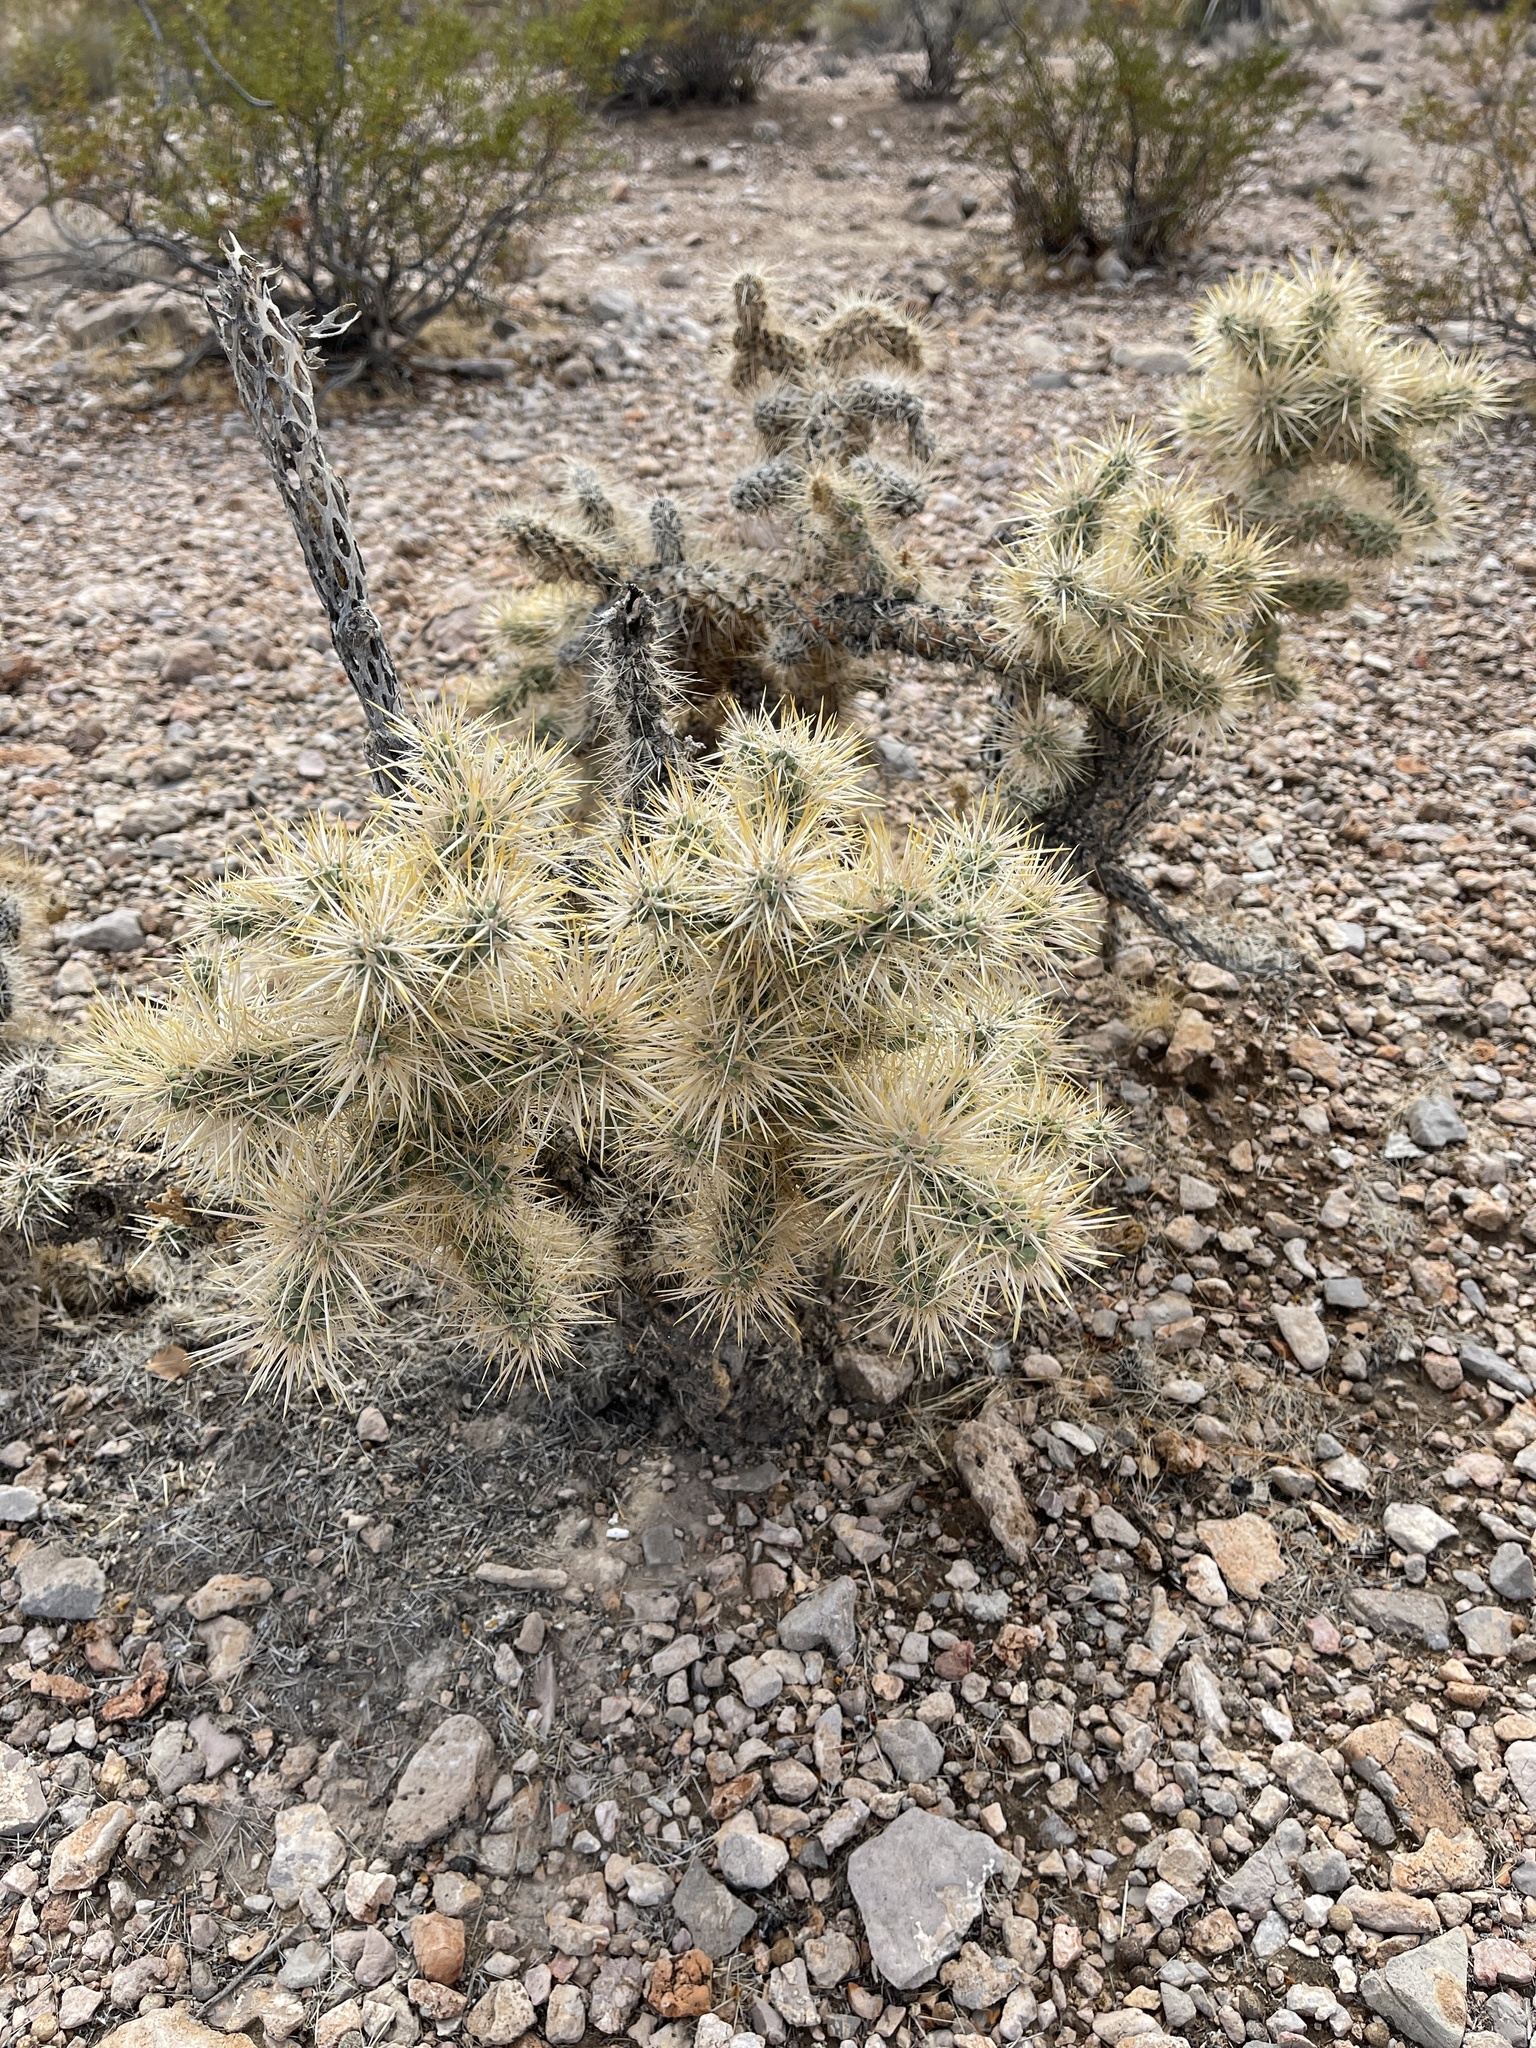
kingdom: Plantae
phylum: Tracheophyta
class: Magnoliopsida
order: Caryophyllales
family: Cactaceae
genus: Cylindropuntia
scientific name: Cylindropuntia echinocarpa
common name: Ground cholla
